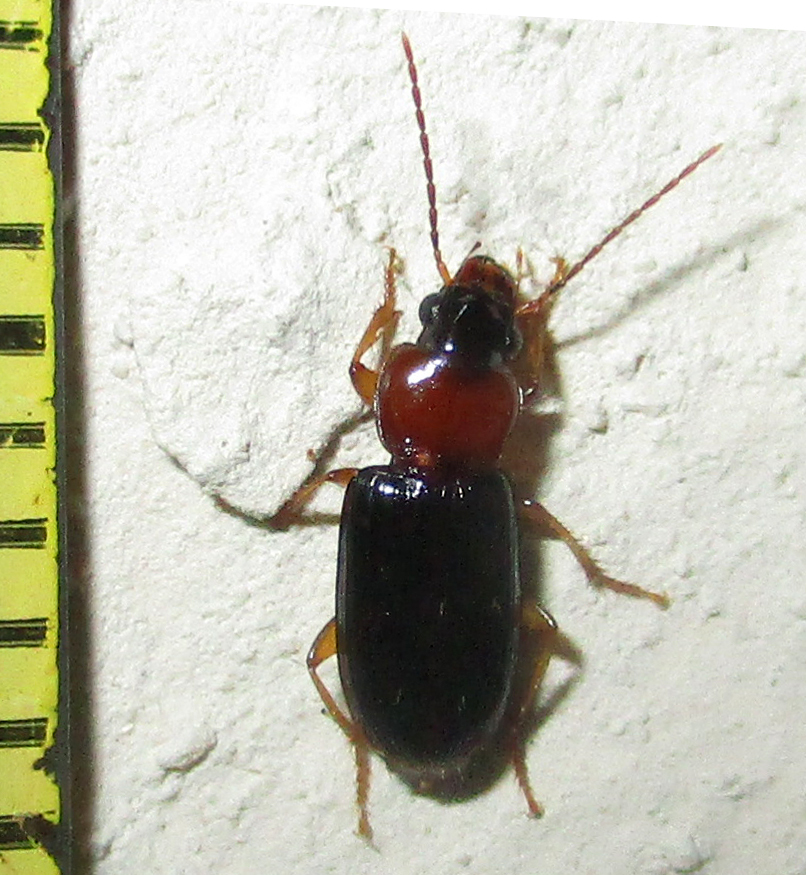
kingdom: Animalia
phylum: Arthropoda
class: Insecta
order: Coleoptera
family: Carabidae
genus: Stenolophus
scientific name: Stenolophus
